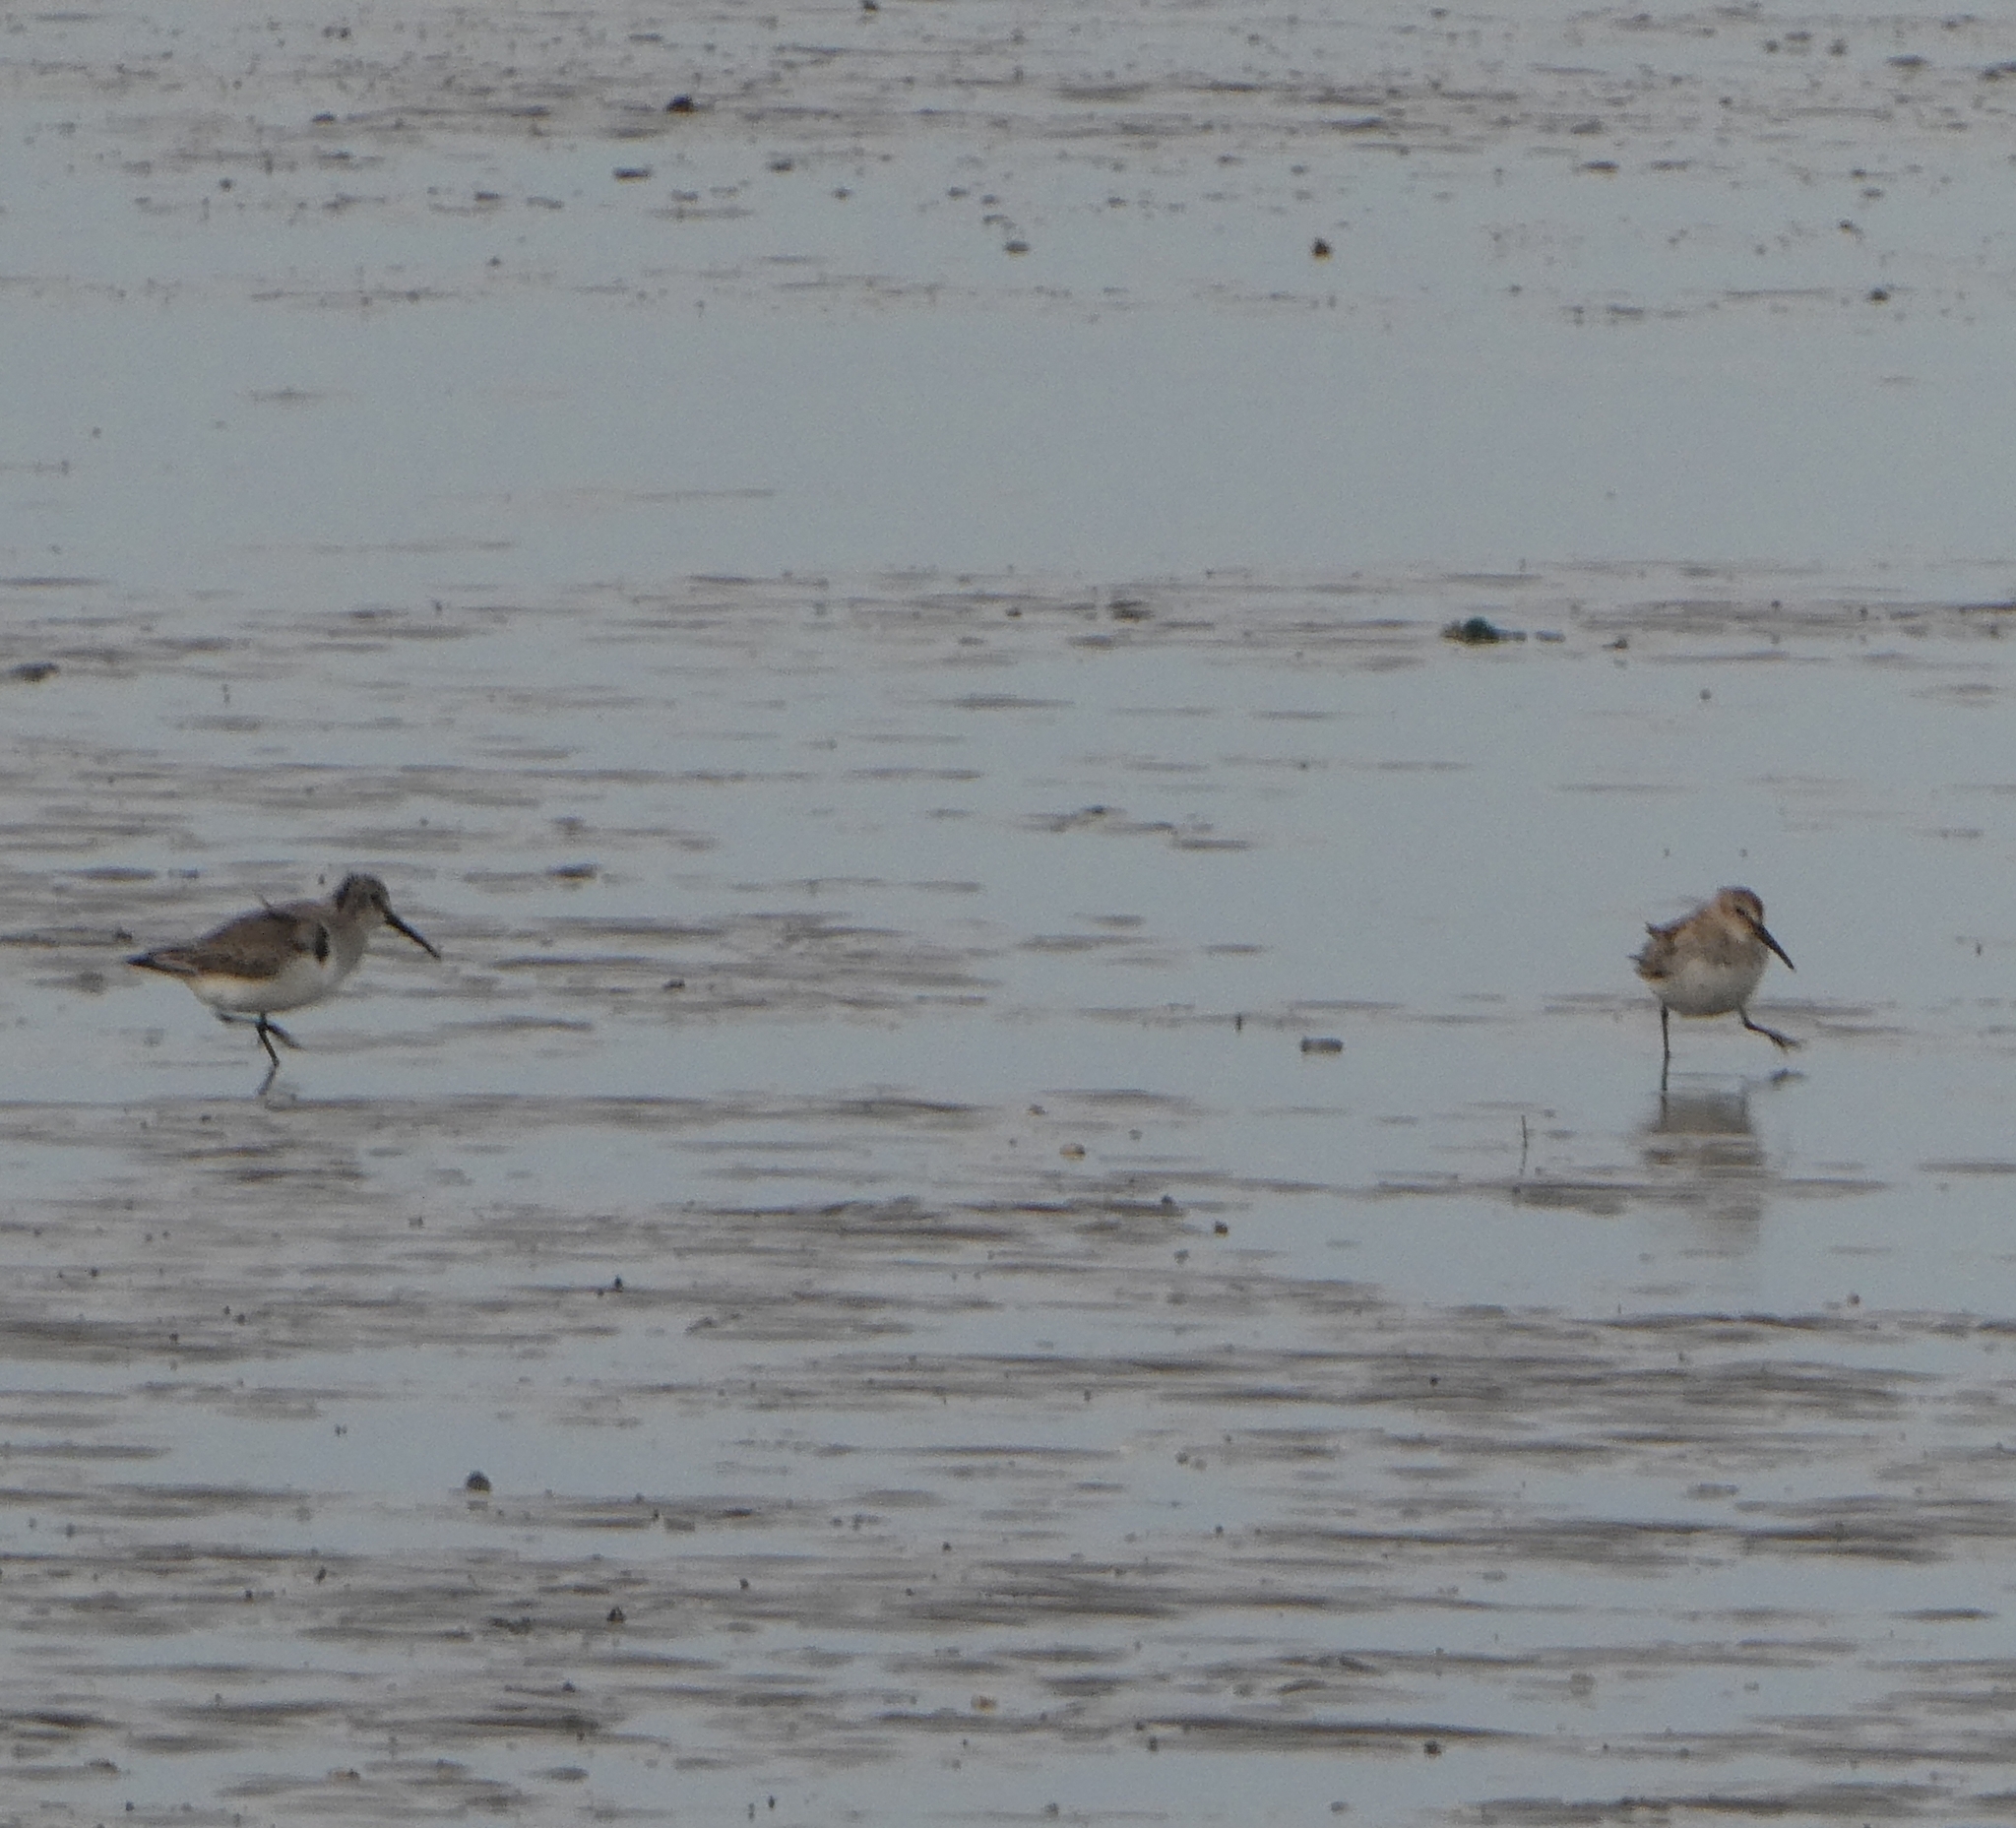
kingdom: Animalia
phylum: Chordata
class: Aves
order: Charadriiformes
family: Scolopacidae
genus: Calidris
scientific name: Calidris alpina
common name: Dunlin
